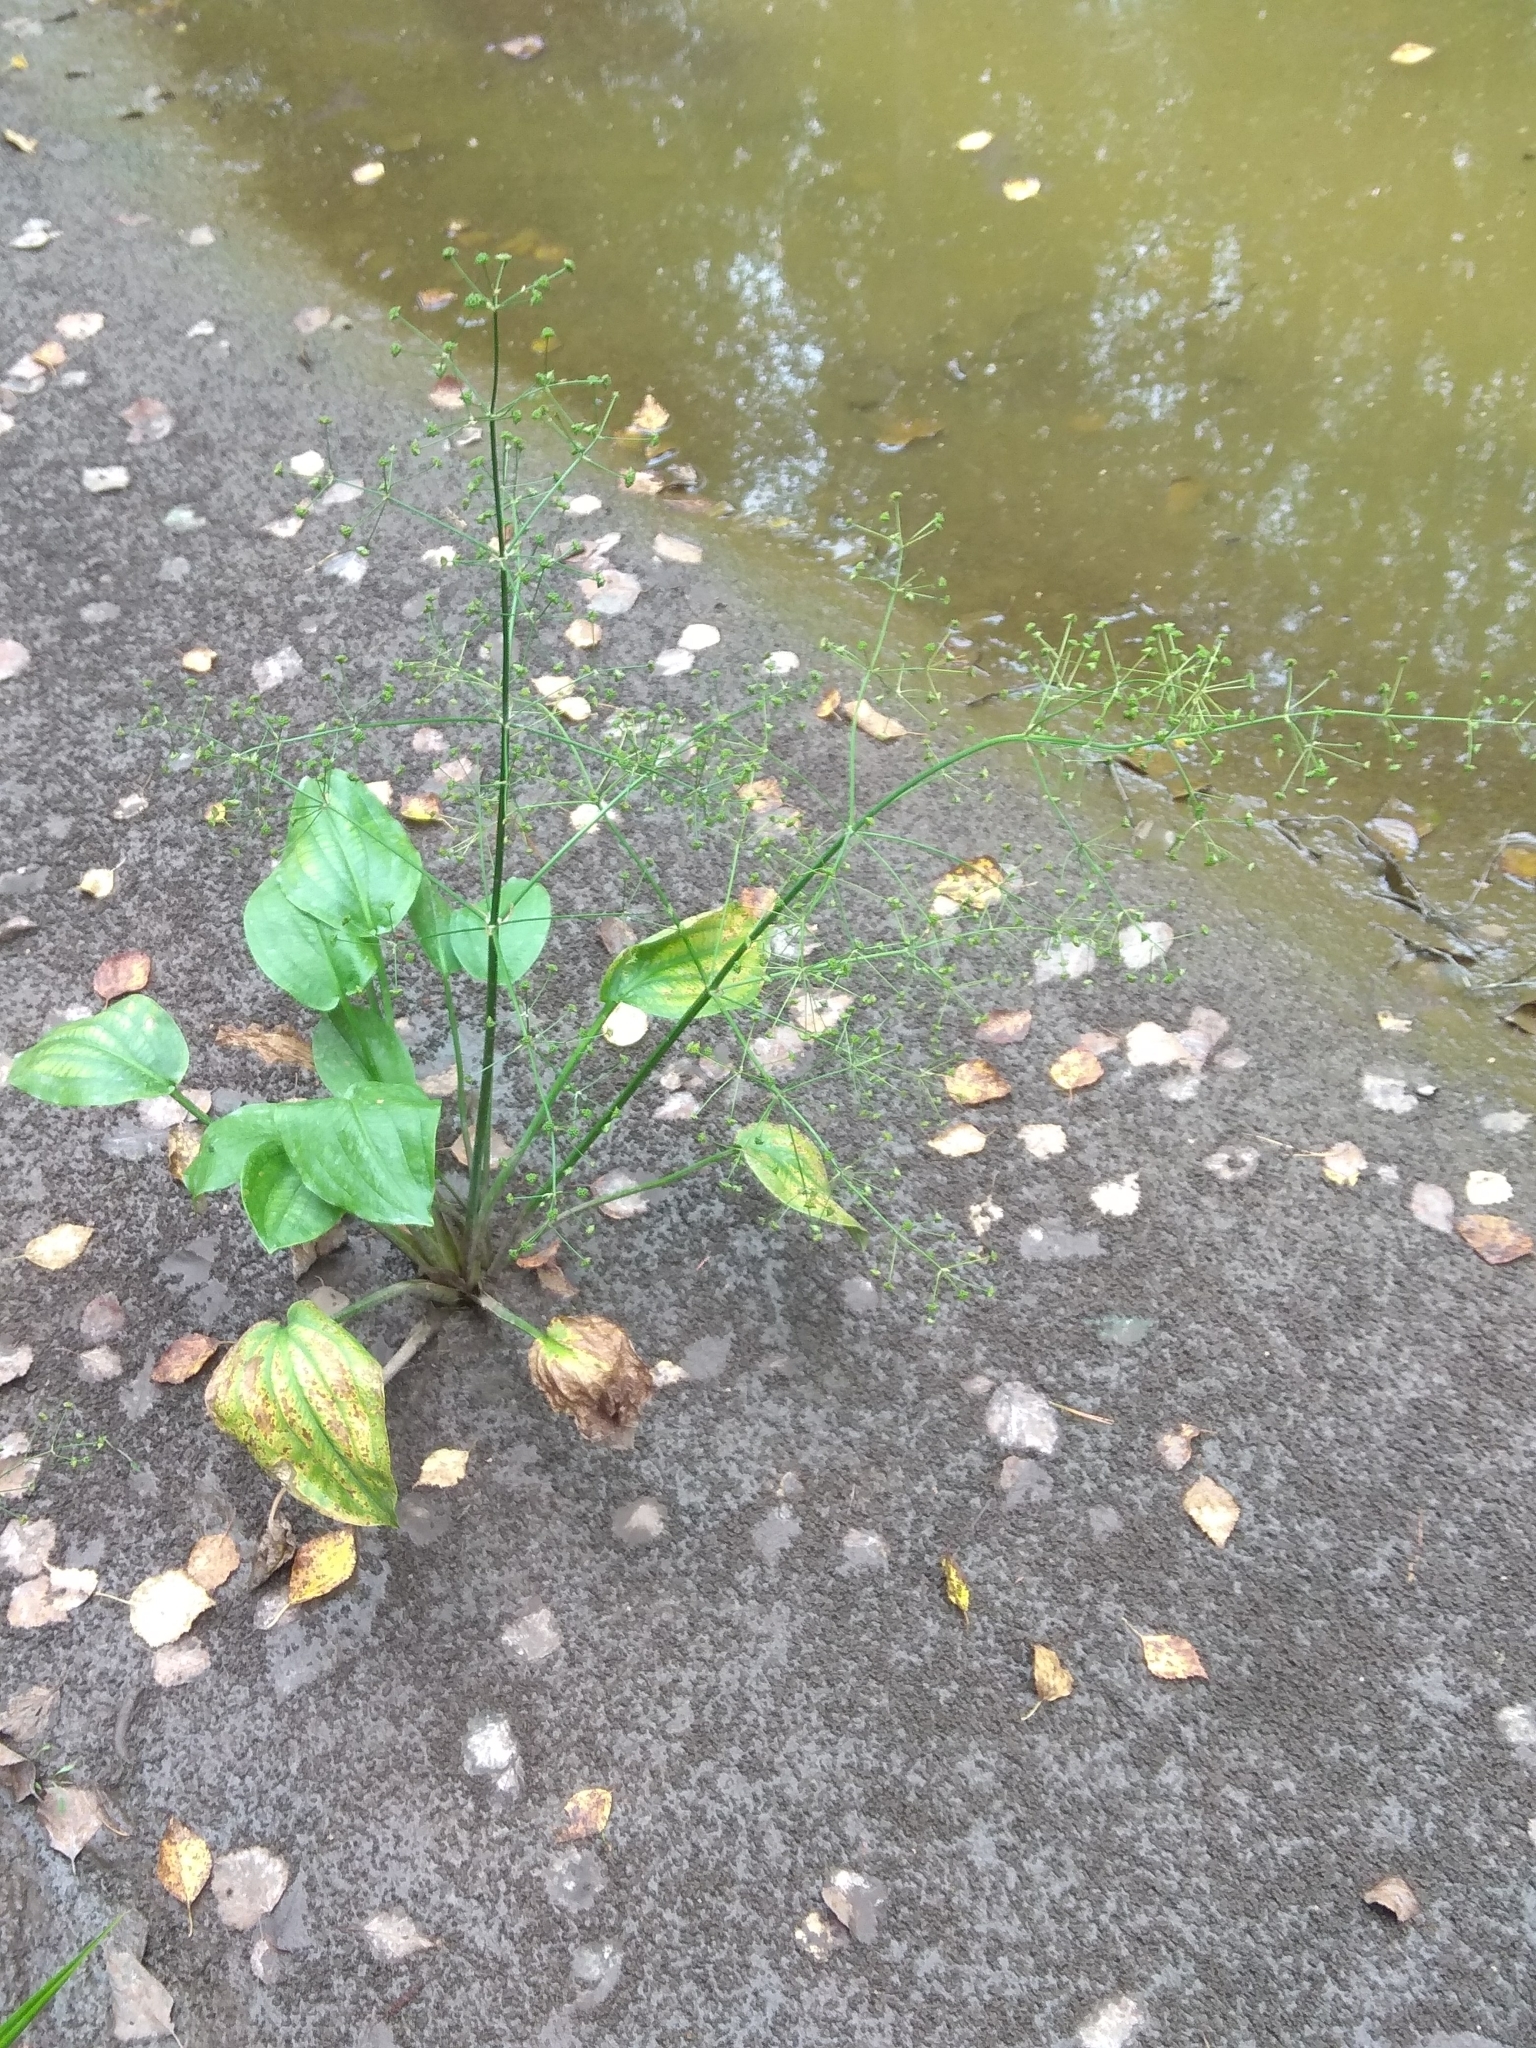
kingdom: Plantae
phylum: Tracheophyta
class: Liliopsida
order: Alismatales
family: Alismataceae
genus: Alisma
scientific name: Alisma plantago-aquatica
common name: Water-plantain
